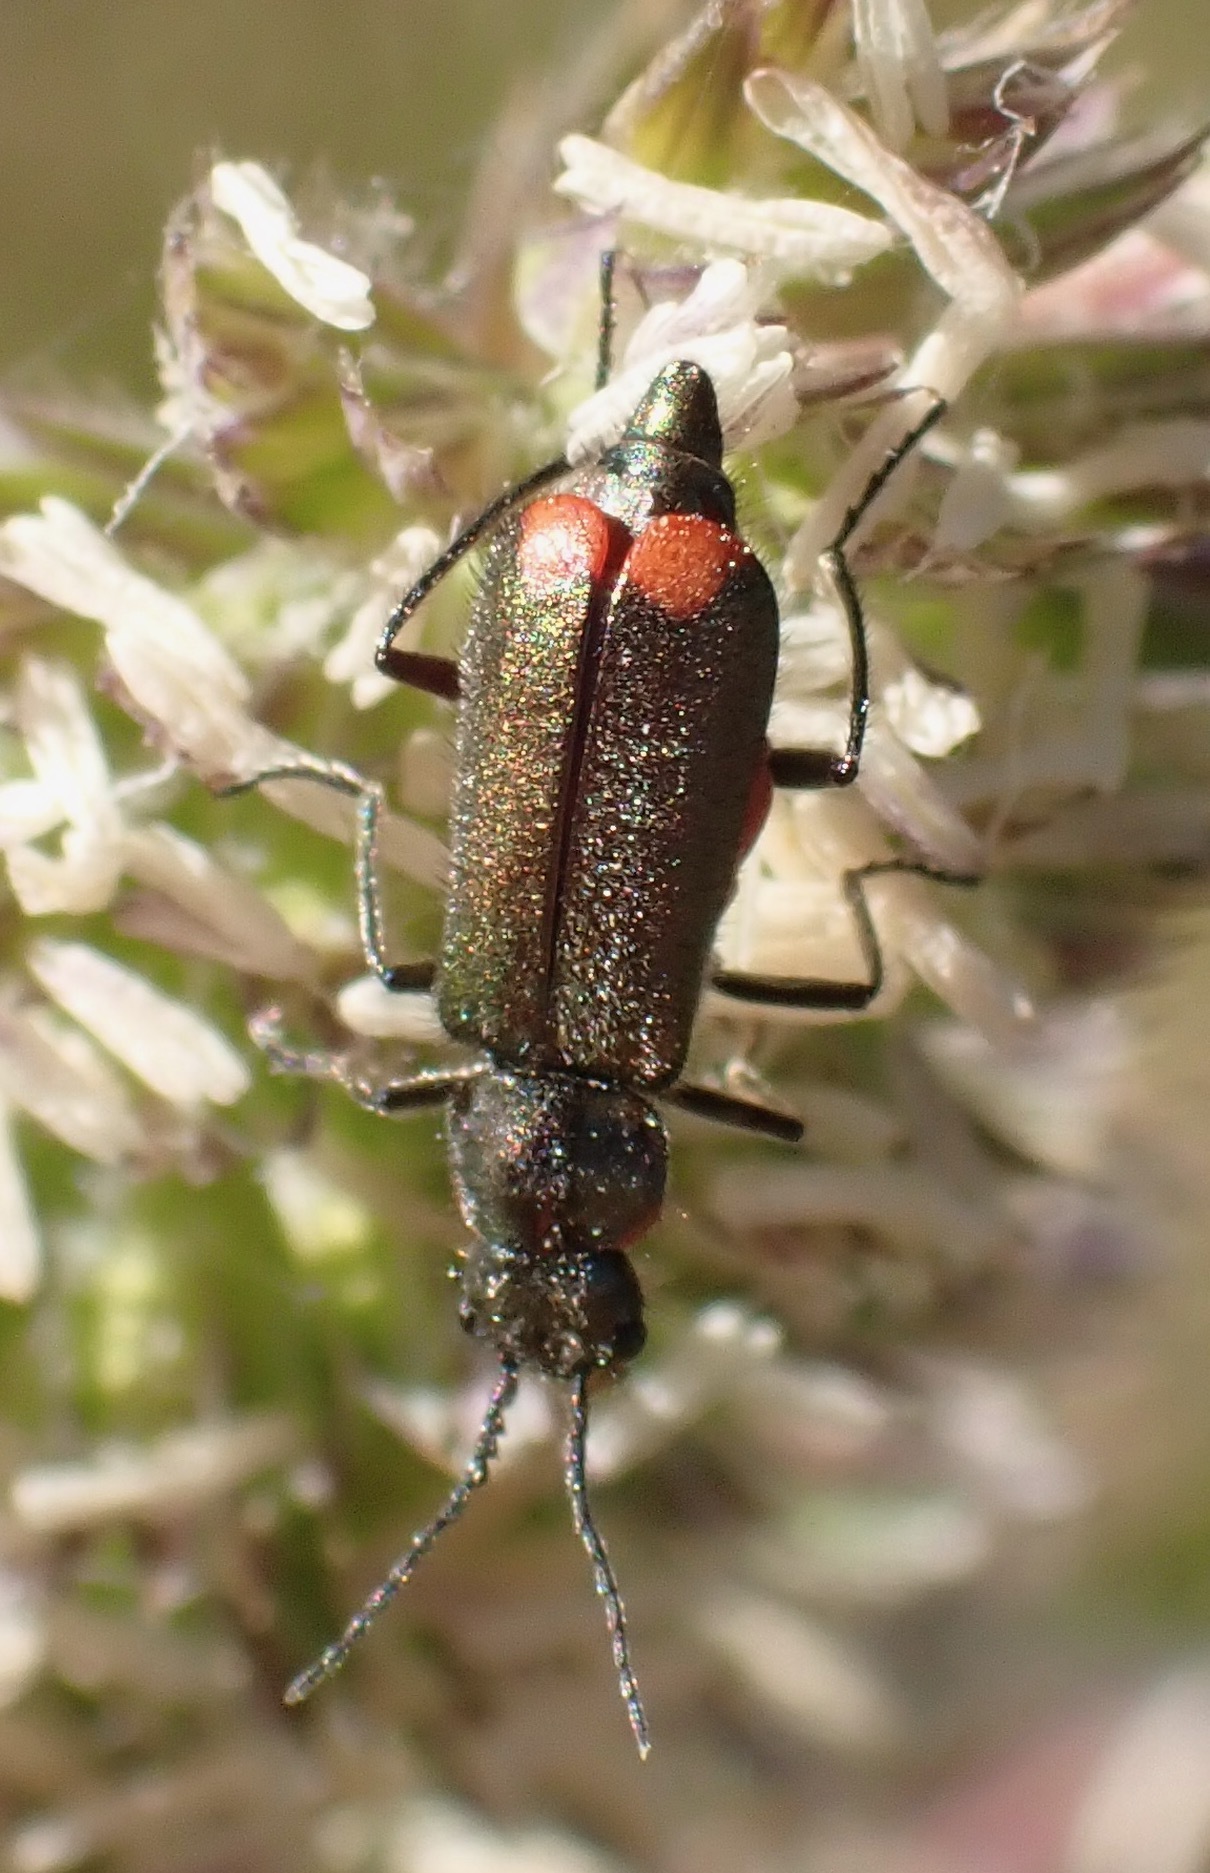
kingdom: Animalia
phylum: Arthropoda
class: Insecta
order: Coleoptera
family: Melyridae
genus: Malachius
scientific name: Malachius bipustulatus
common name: Malachite beetle
